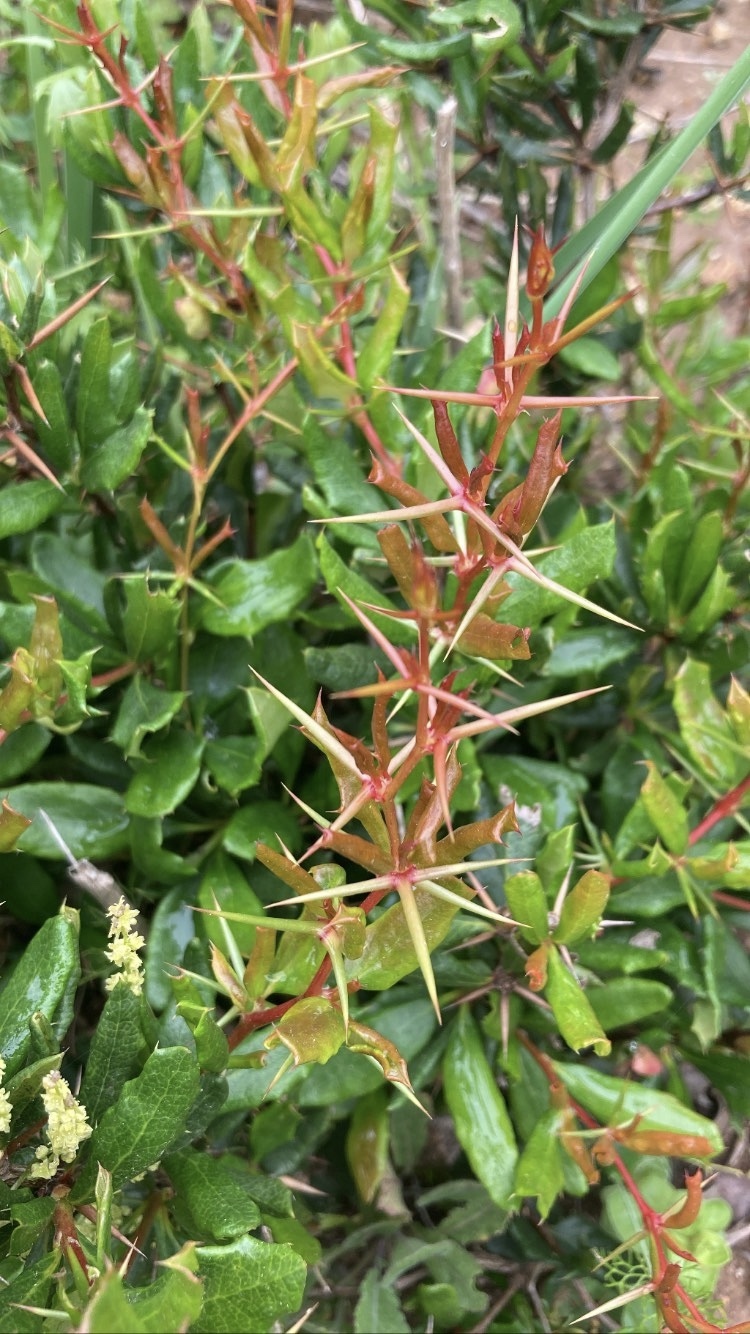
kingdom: Plantae
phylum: Tracheophyta
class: Magnoliopsida
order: Ranunculales
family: Berberidaceae
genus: Berberis
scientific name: Berberis chilensis
